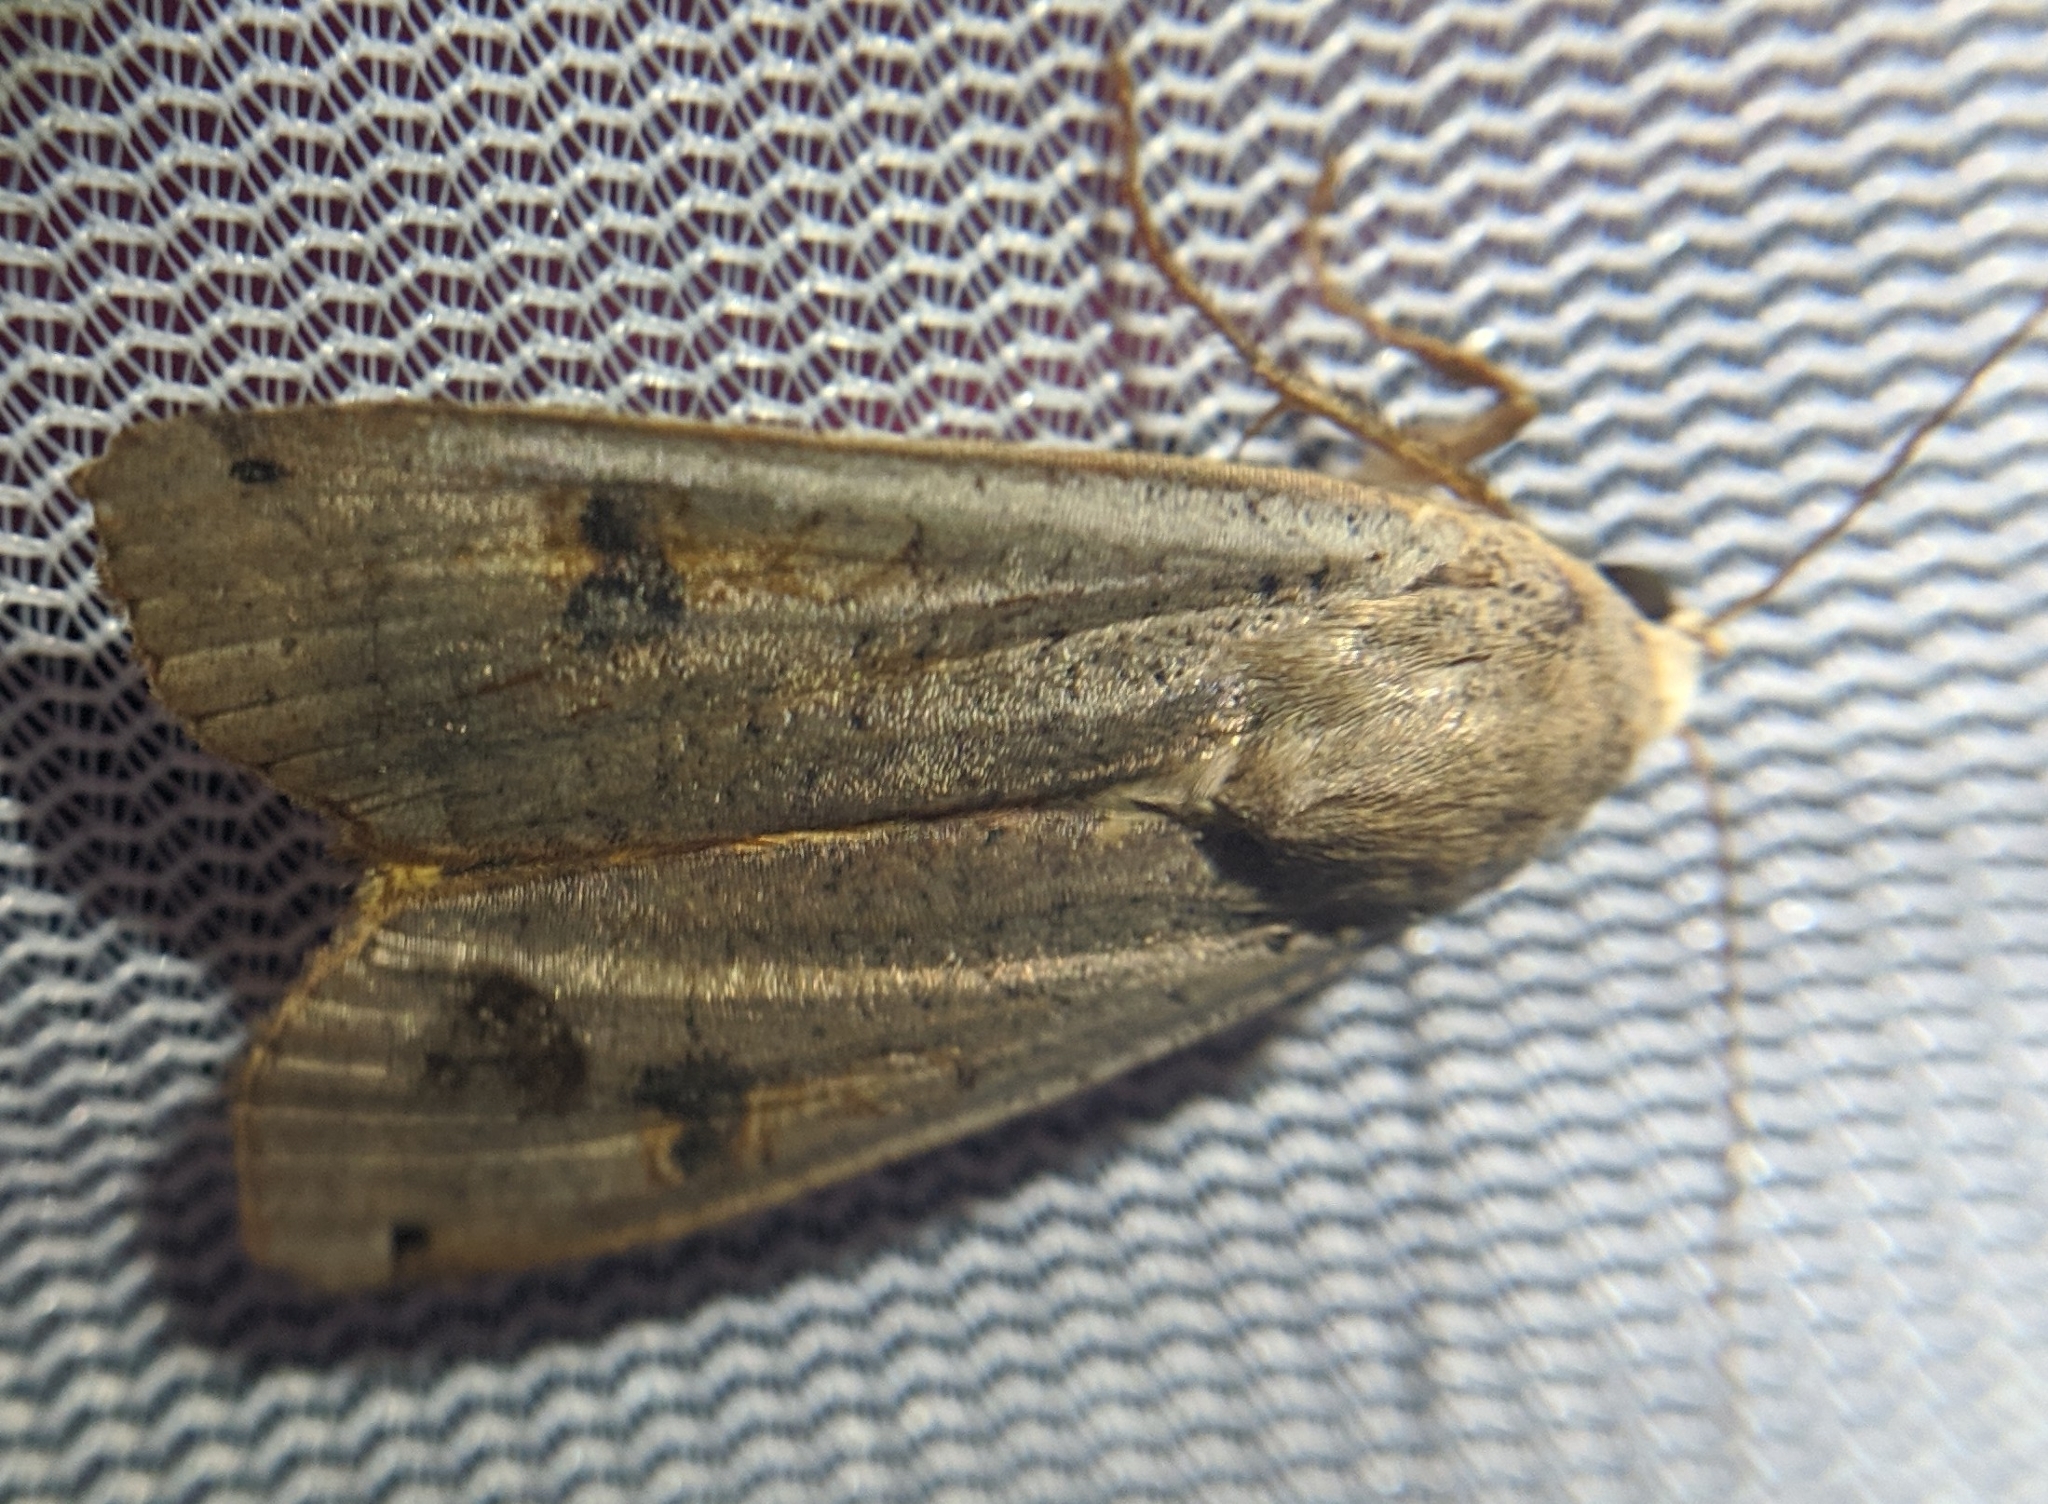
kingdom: Animalia
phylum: Arthropoda
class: Insecta
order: Lepidoptera
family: Noctuidae
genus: Noctua
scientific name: Noctua pronuba
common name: Large yellow underwing
